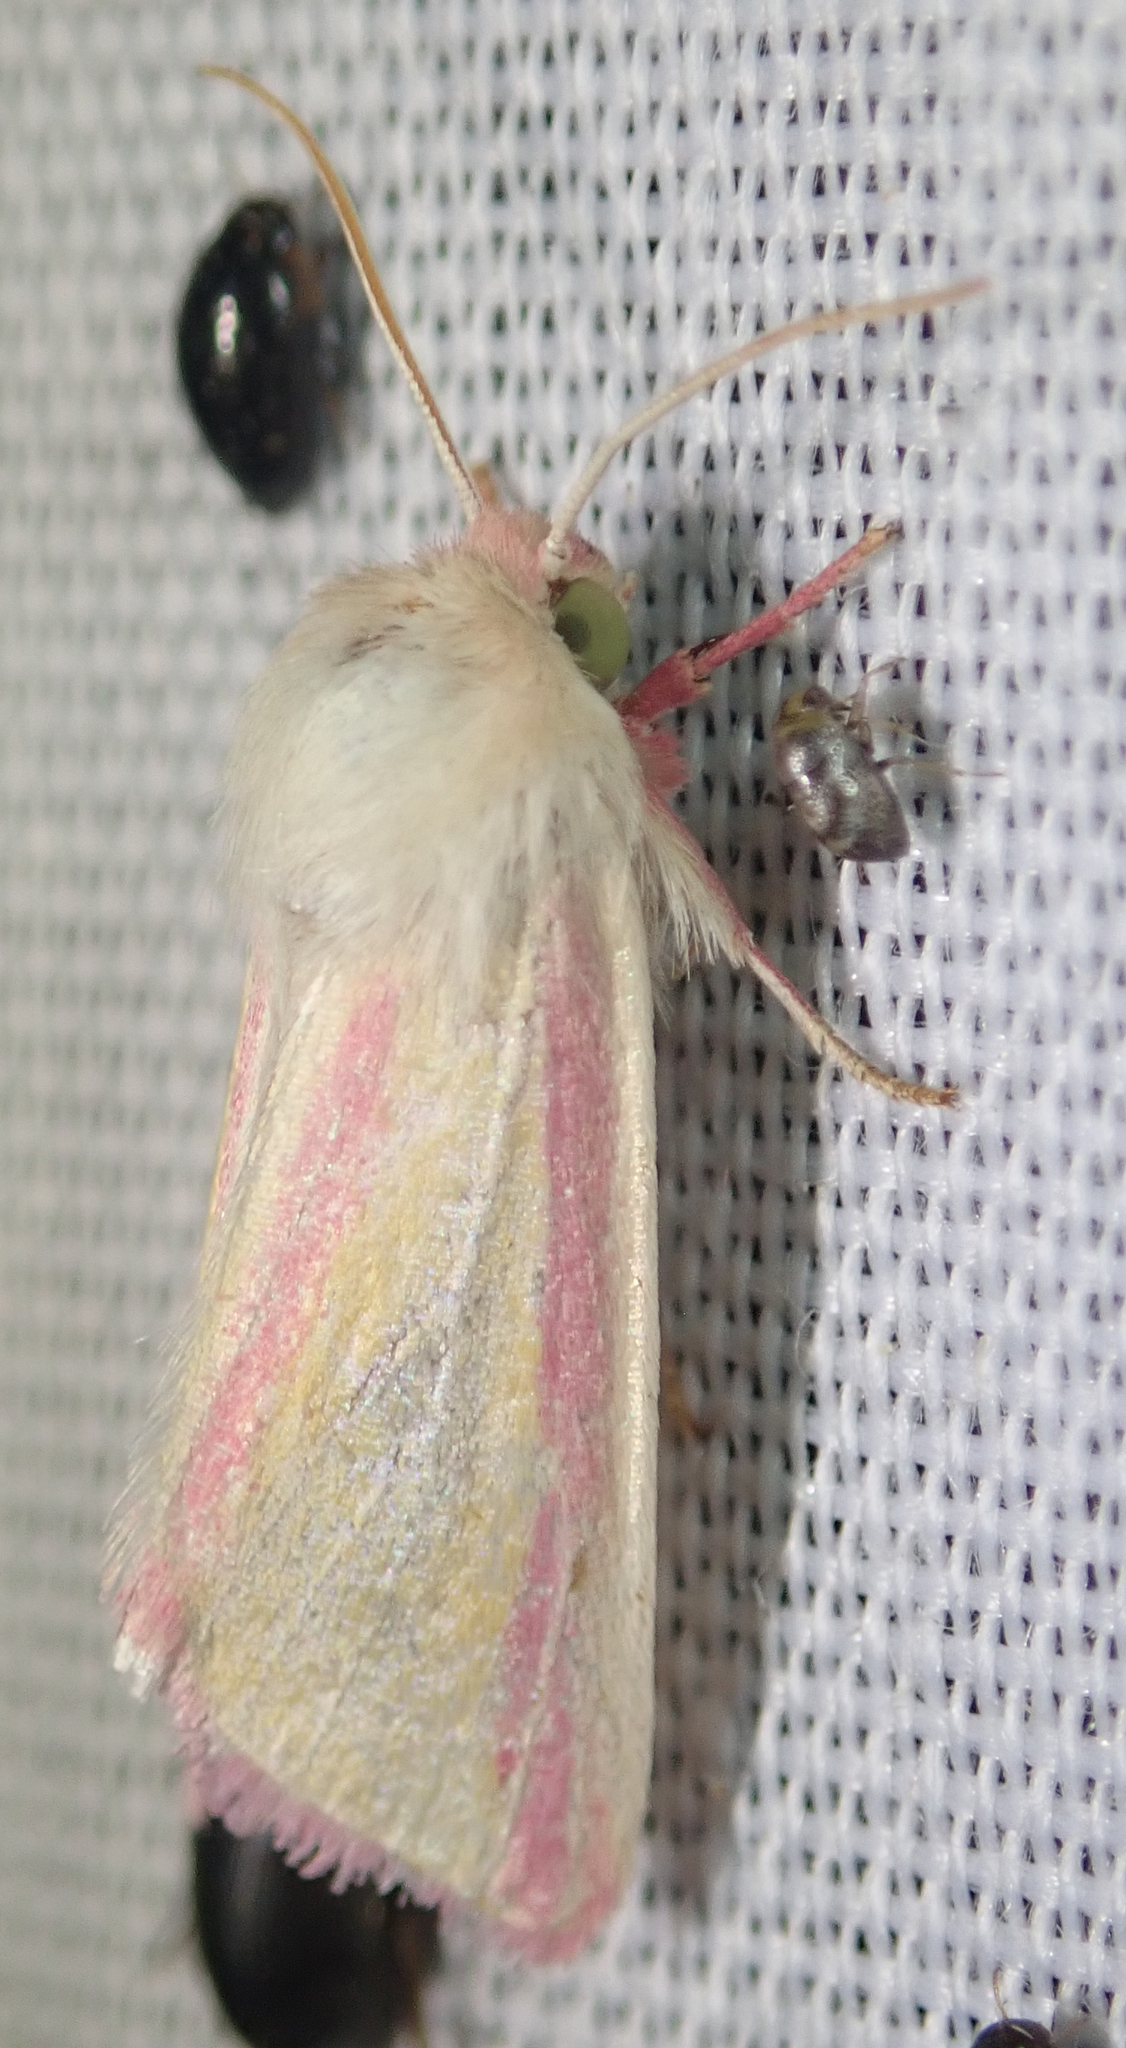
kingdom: Animalia
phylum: Arthropoda
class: Insecta
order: Lepidoptera
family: Noctuidae
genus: Heliothis
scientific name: Heliothis
